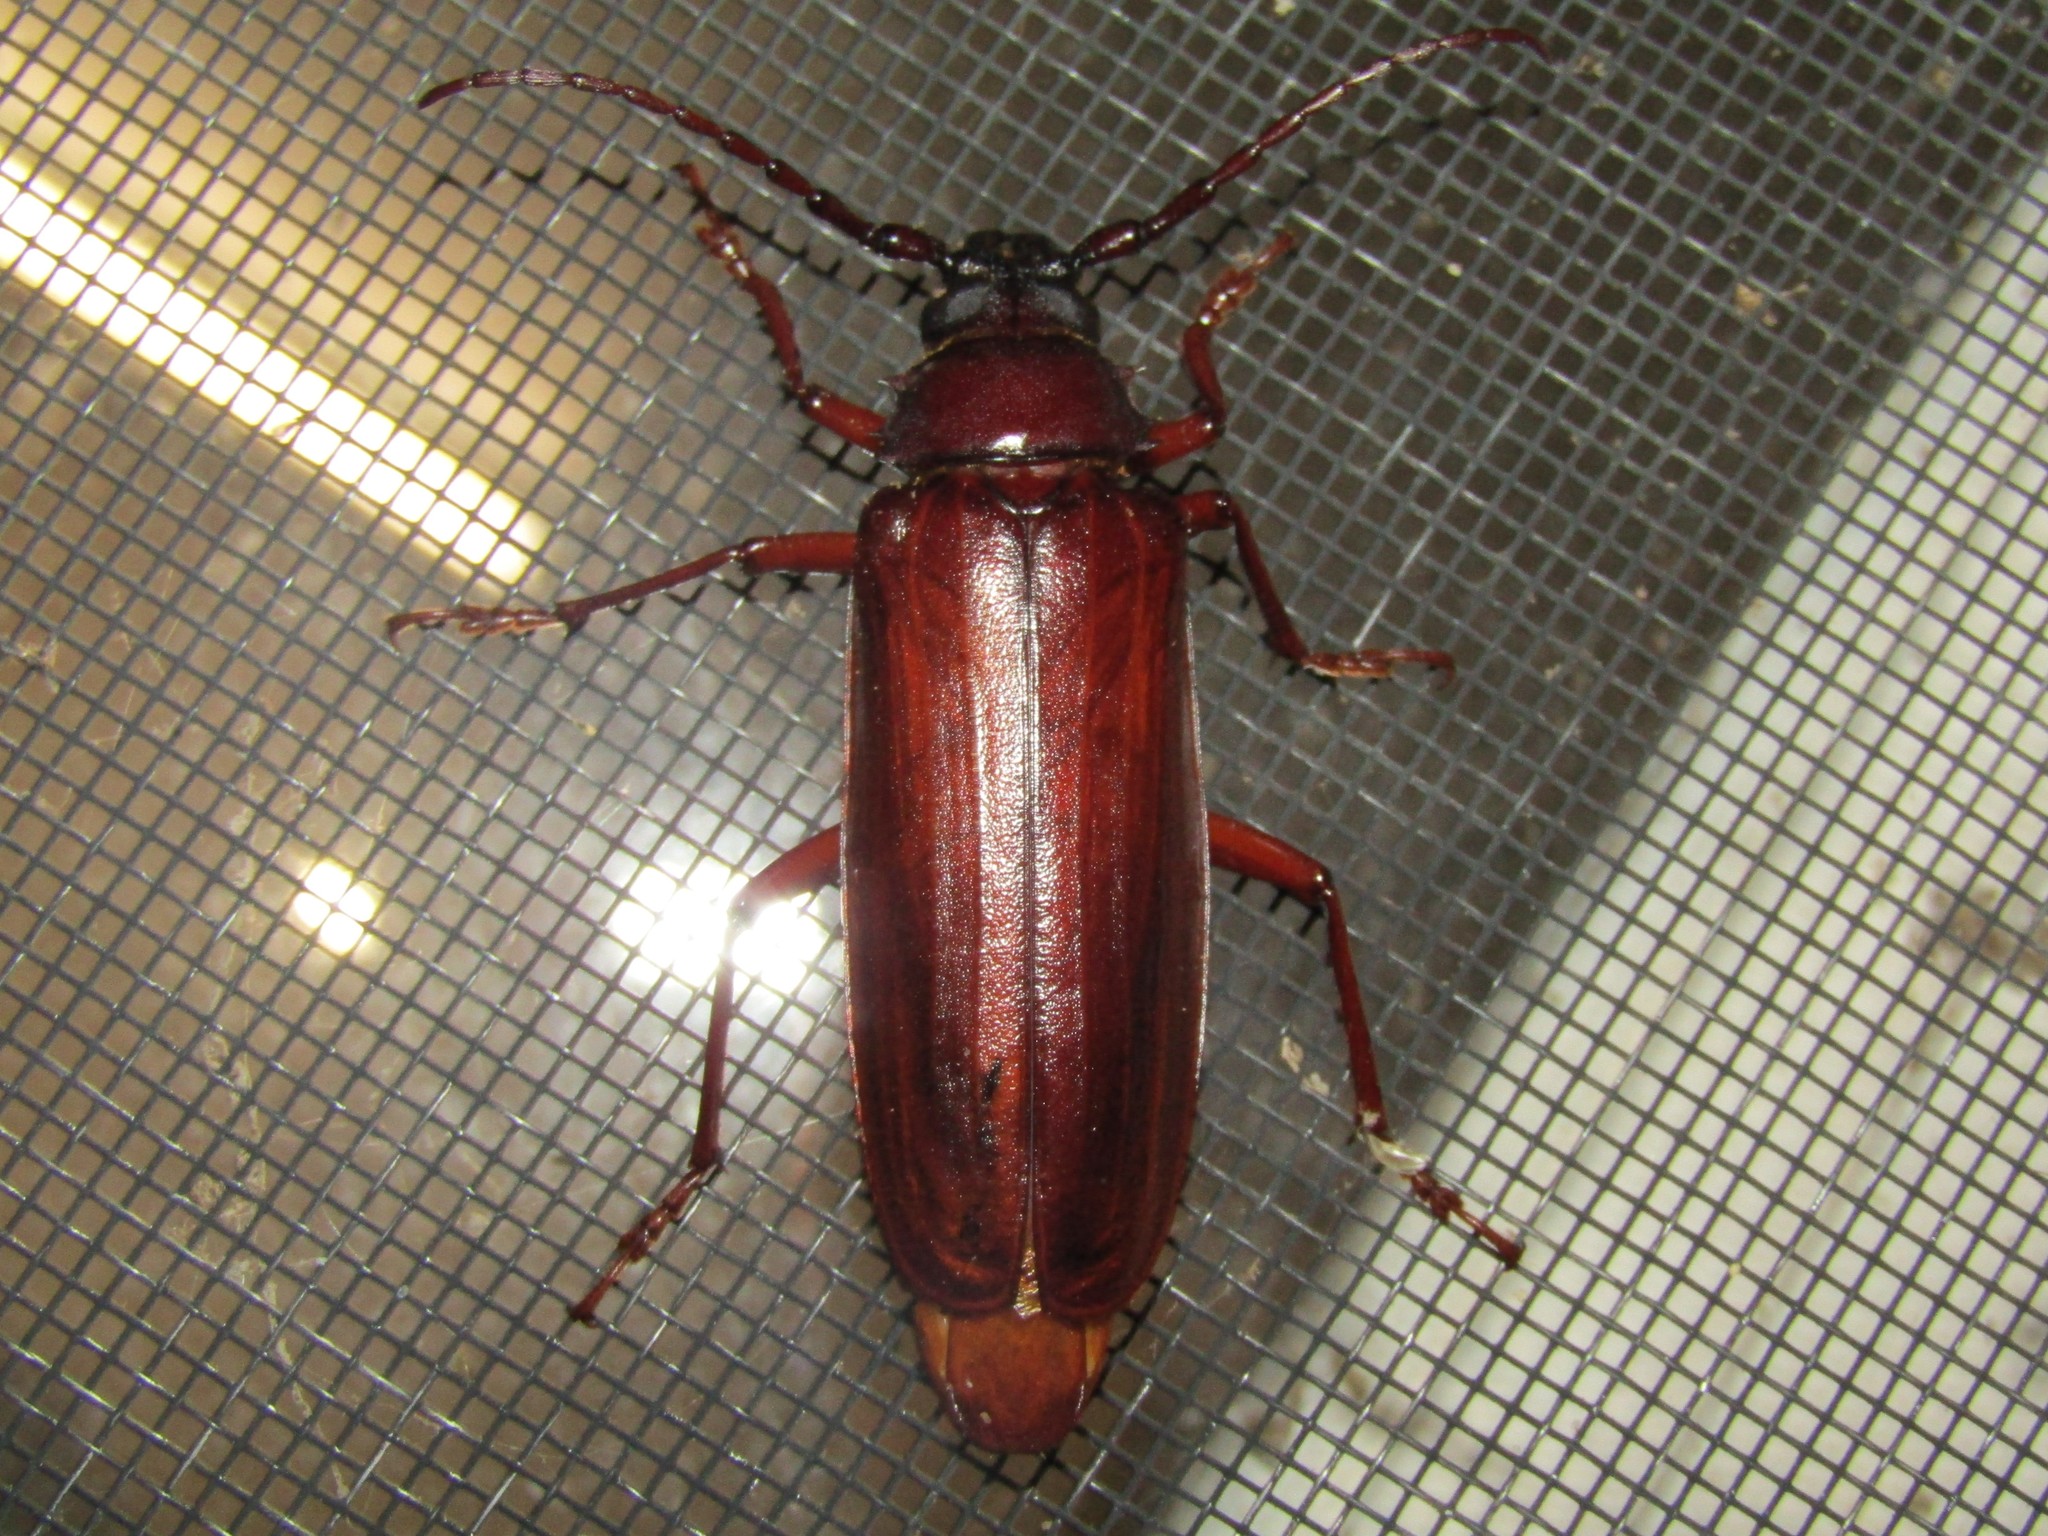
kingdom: Animalia
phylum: Arthropoda
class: Insecta
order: Coleoptera
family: Cerambycidae
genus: Orthosoma
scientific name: Orthosoma brunneum
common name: Brown prionid beetle
